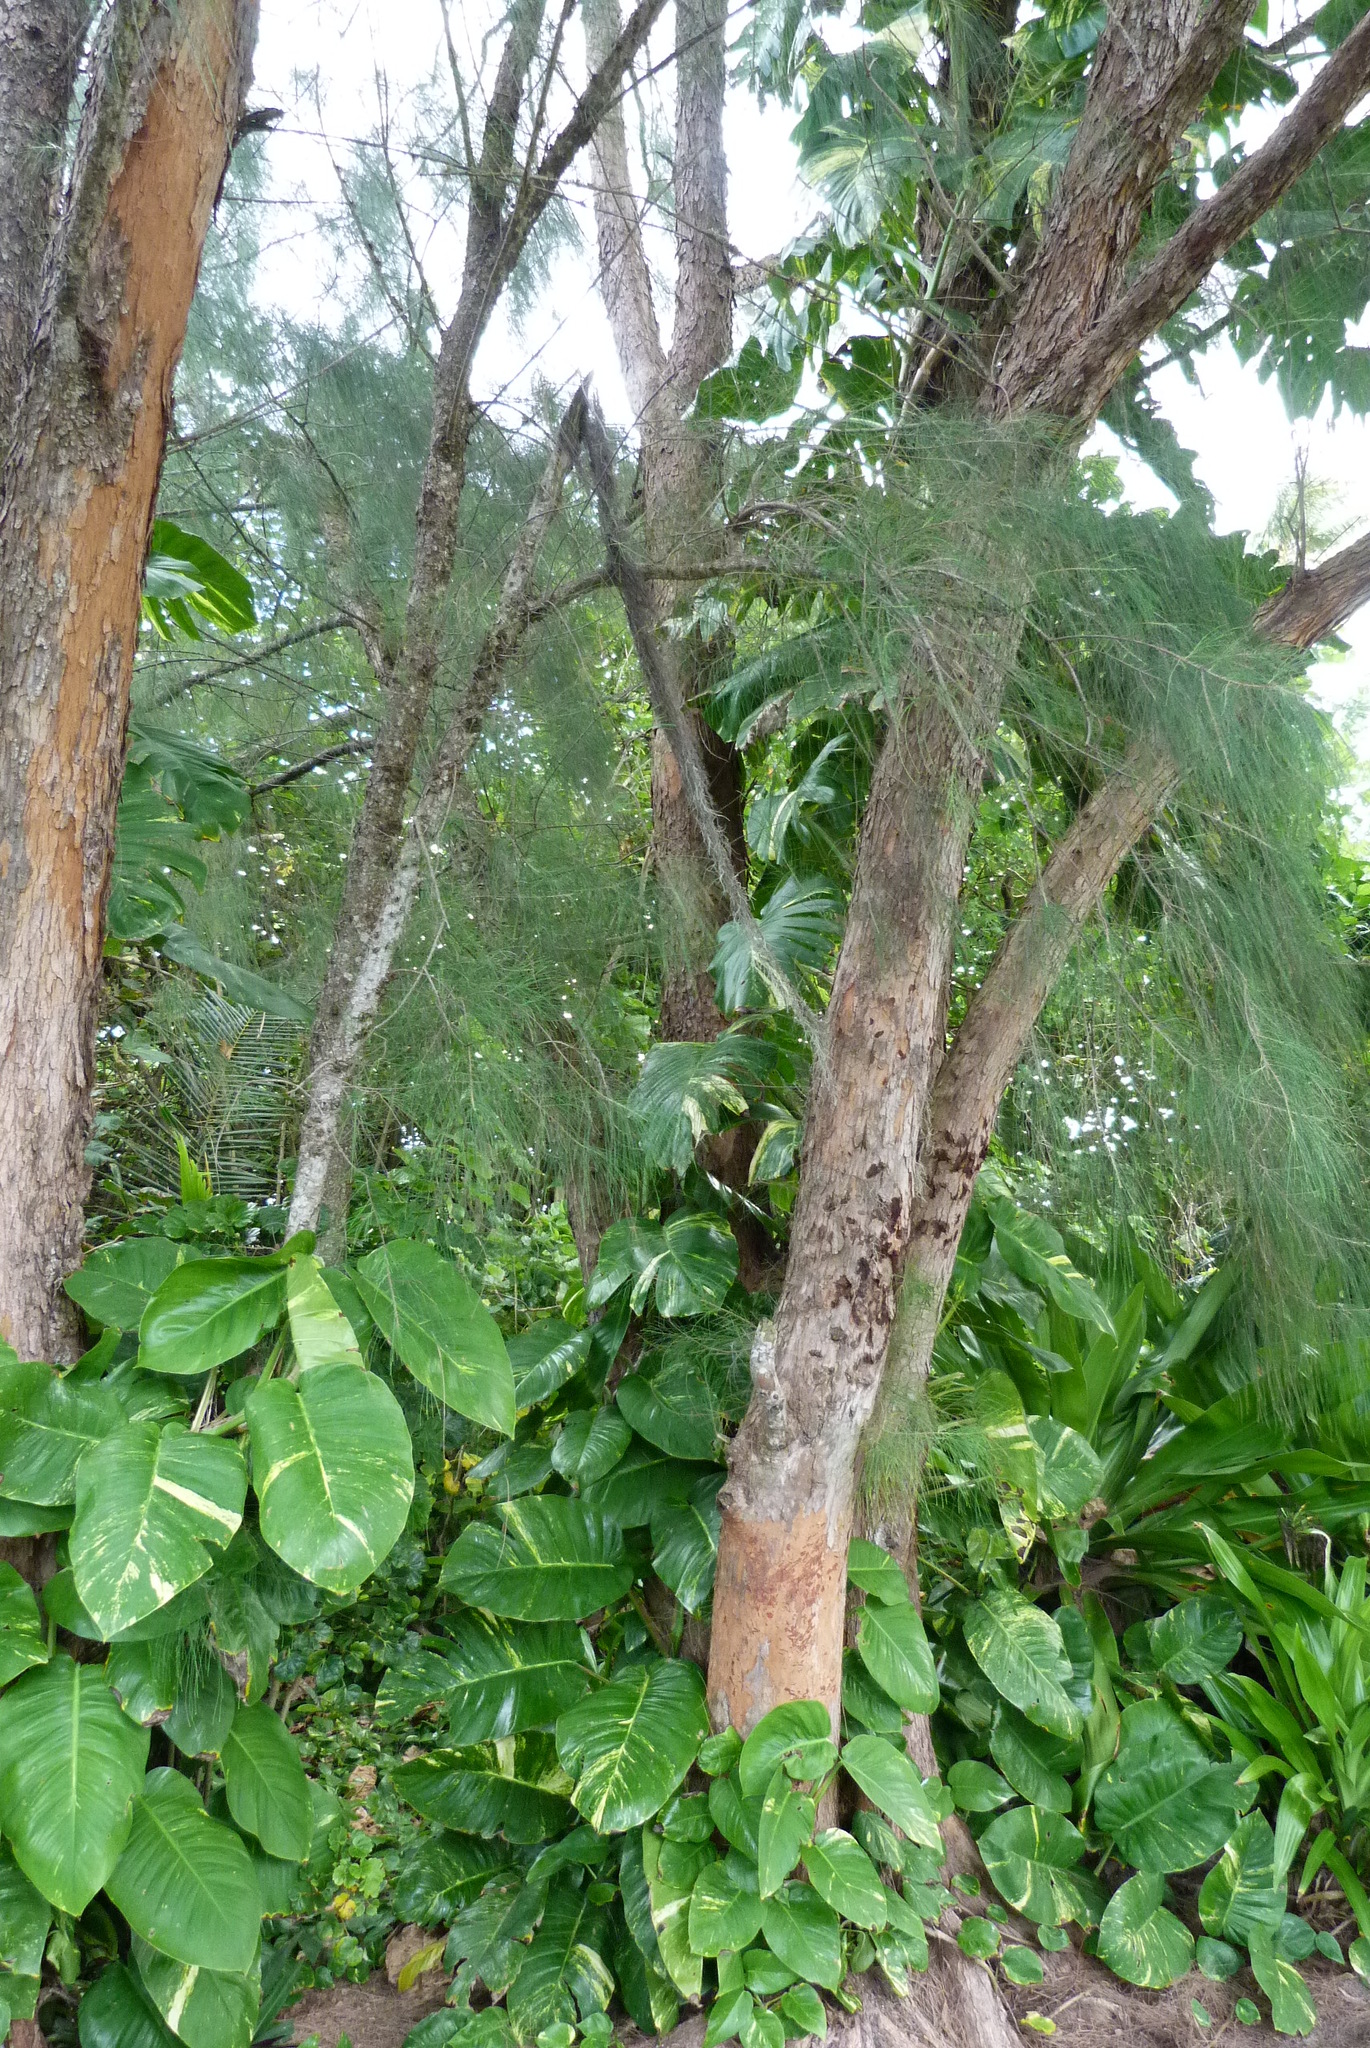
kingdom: Plantae
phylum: Tracheophyta
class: Liliopsida
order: Alismatales
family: Araceae
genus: Epipremnum
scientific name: Epipremnum aureum
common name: Golden hunter's-robe
